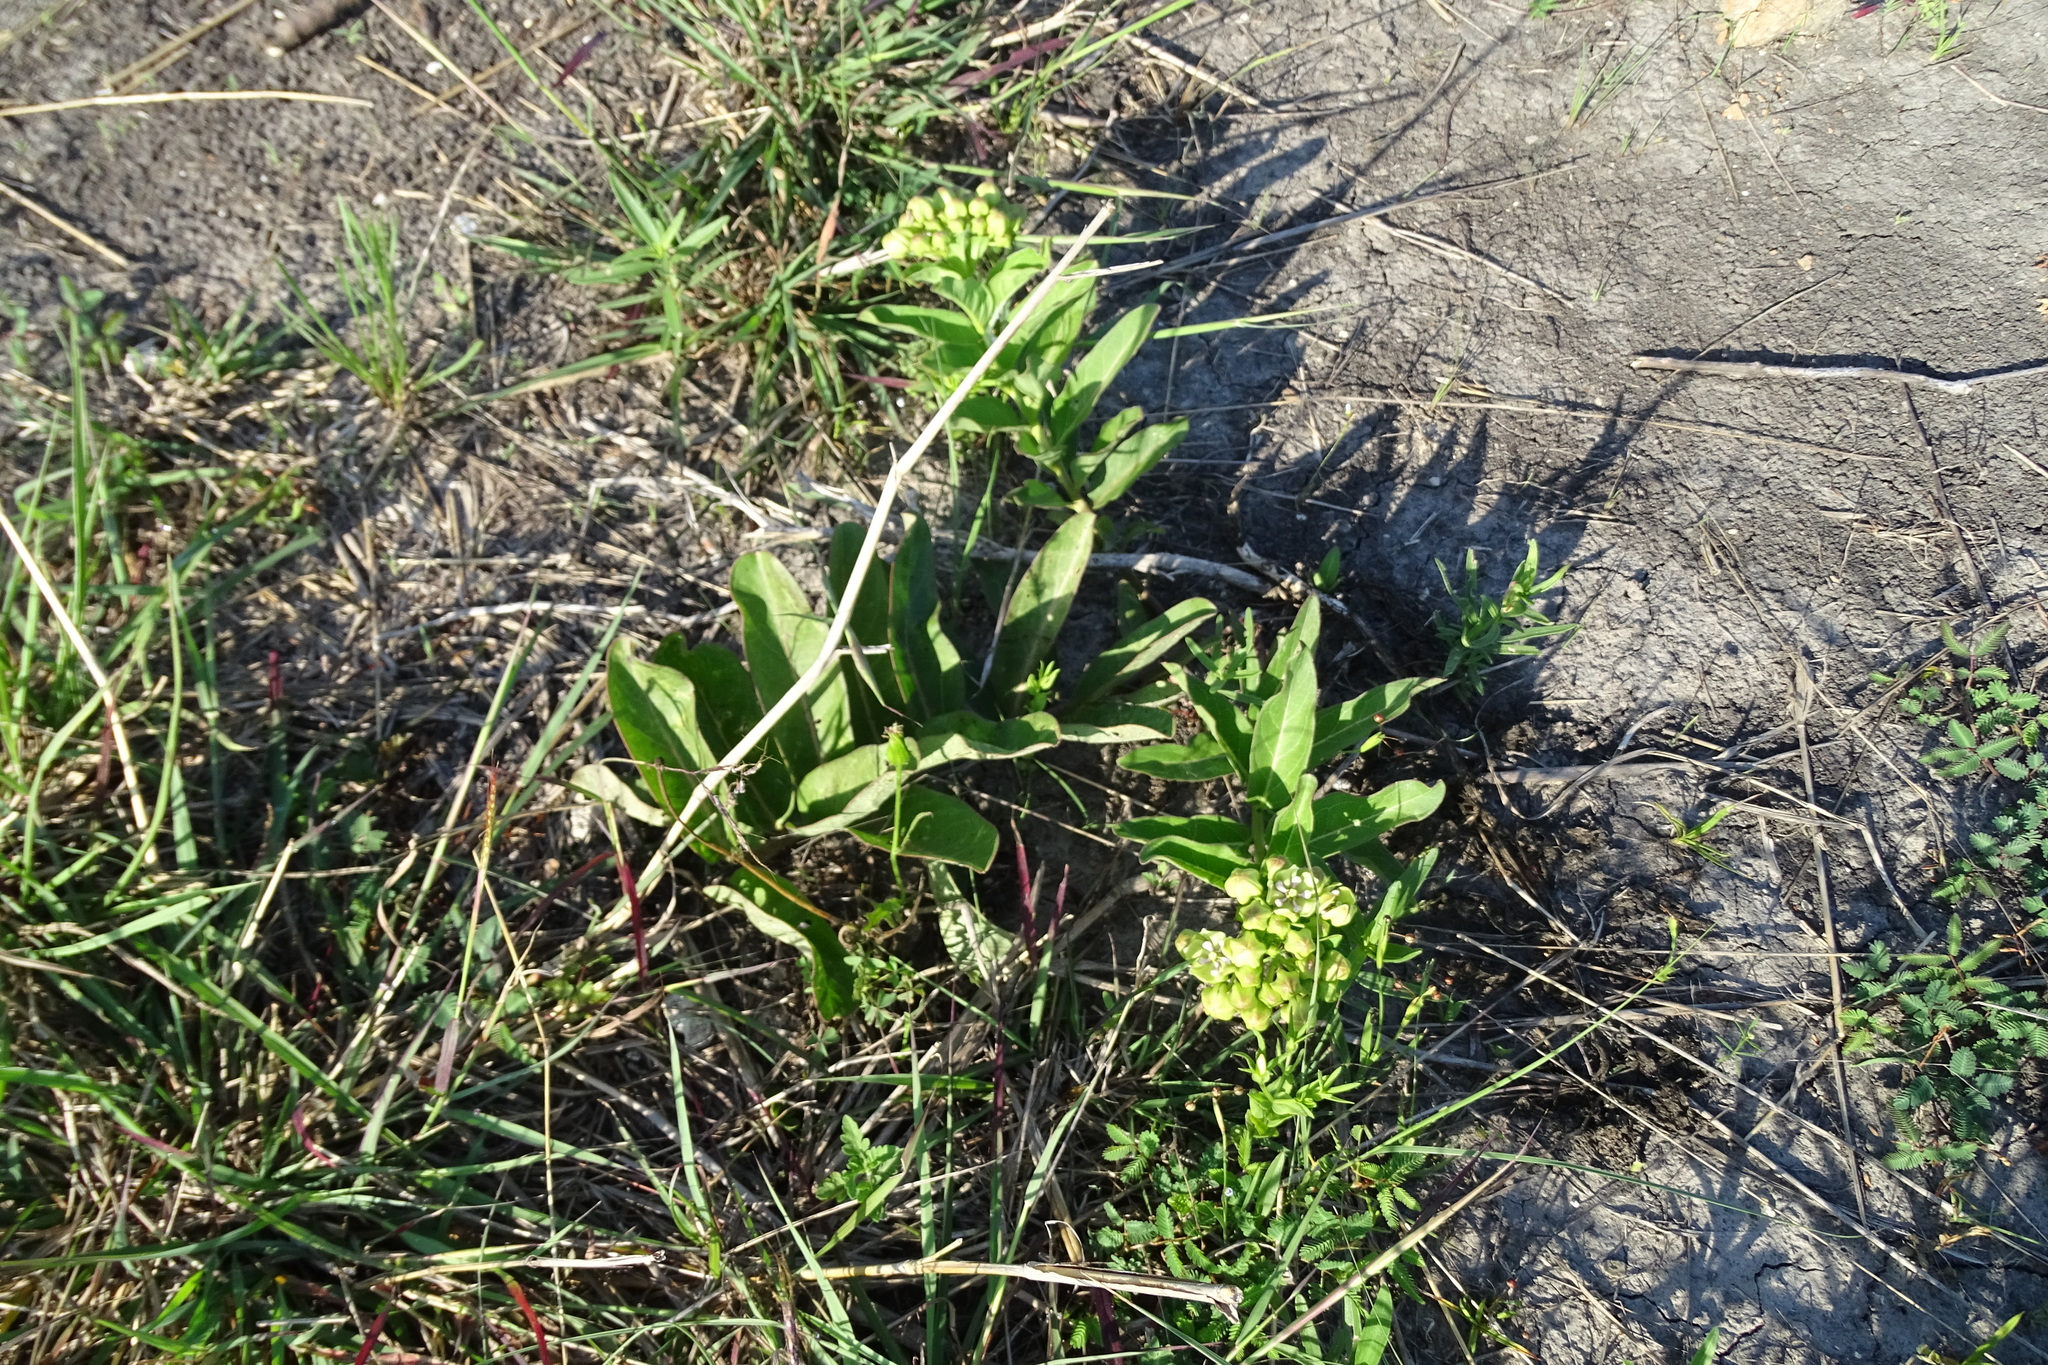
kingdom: Plantae
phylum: Tracheophyta
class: Magnoliopsida
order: Gentianales
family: Apocynaceae
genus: Asclepias
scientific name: Asclepias viridis
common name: Antelope-horns
